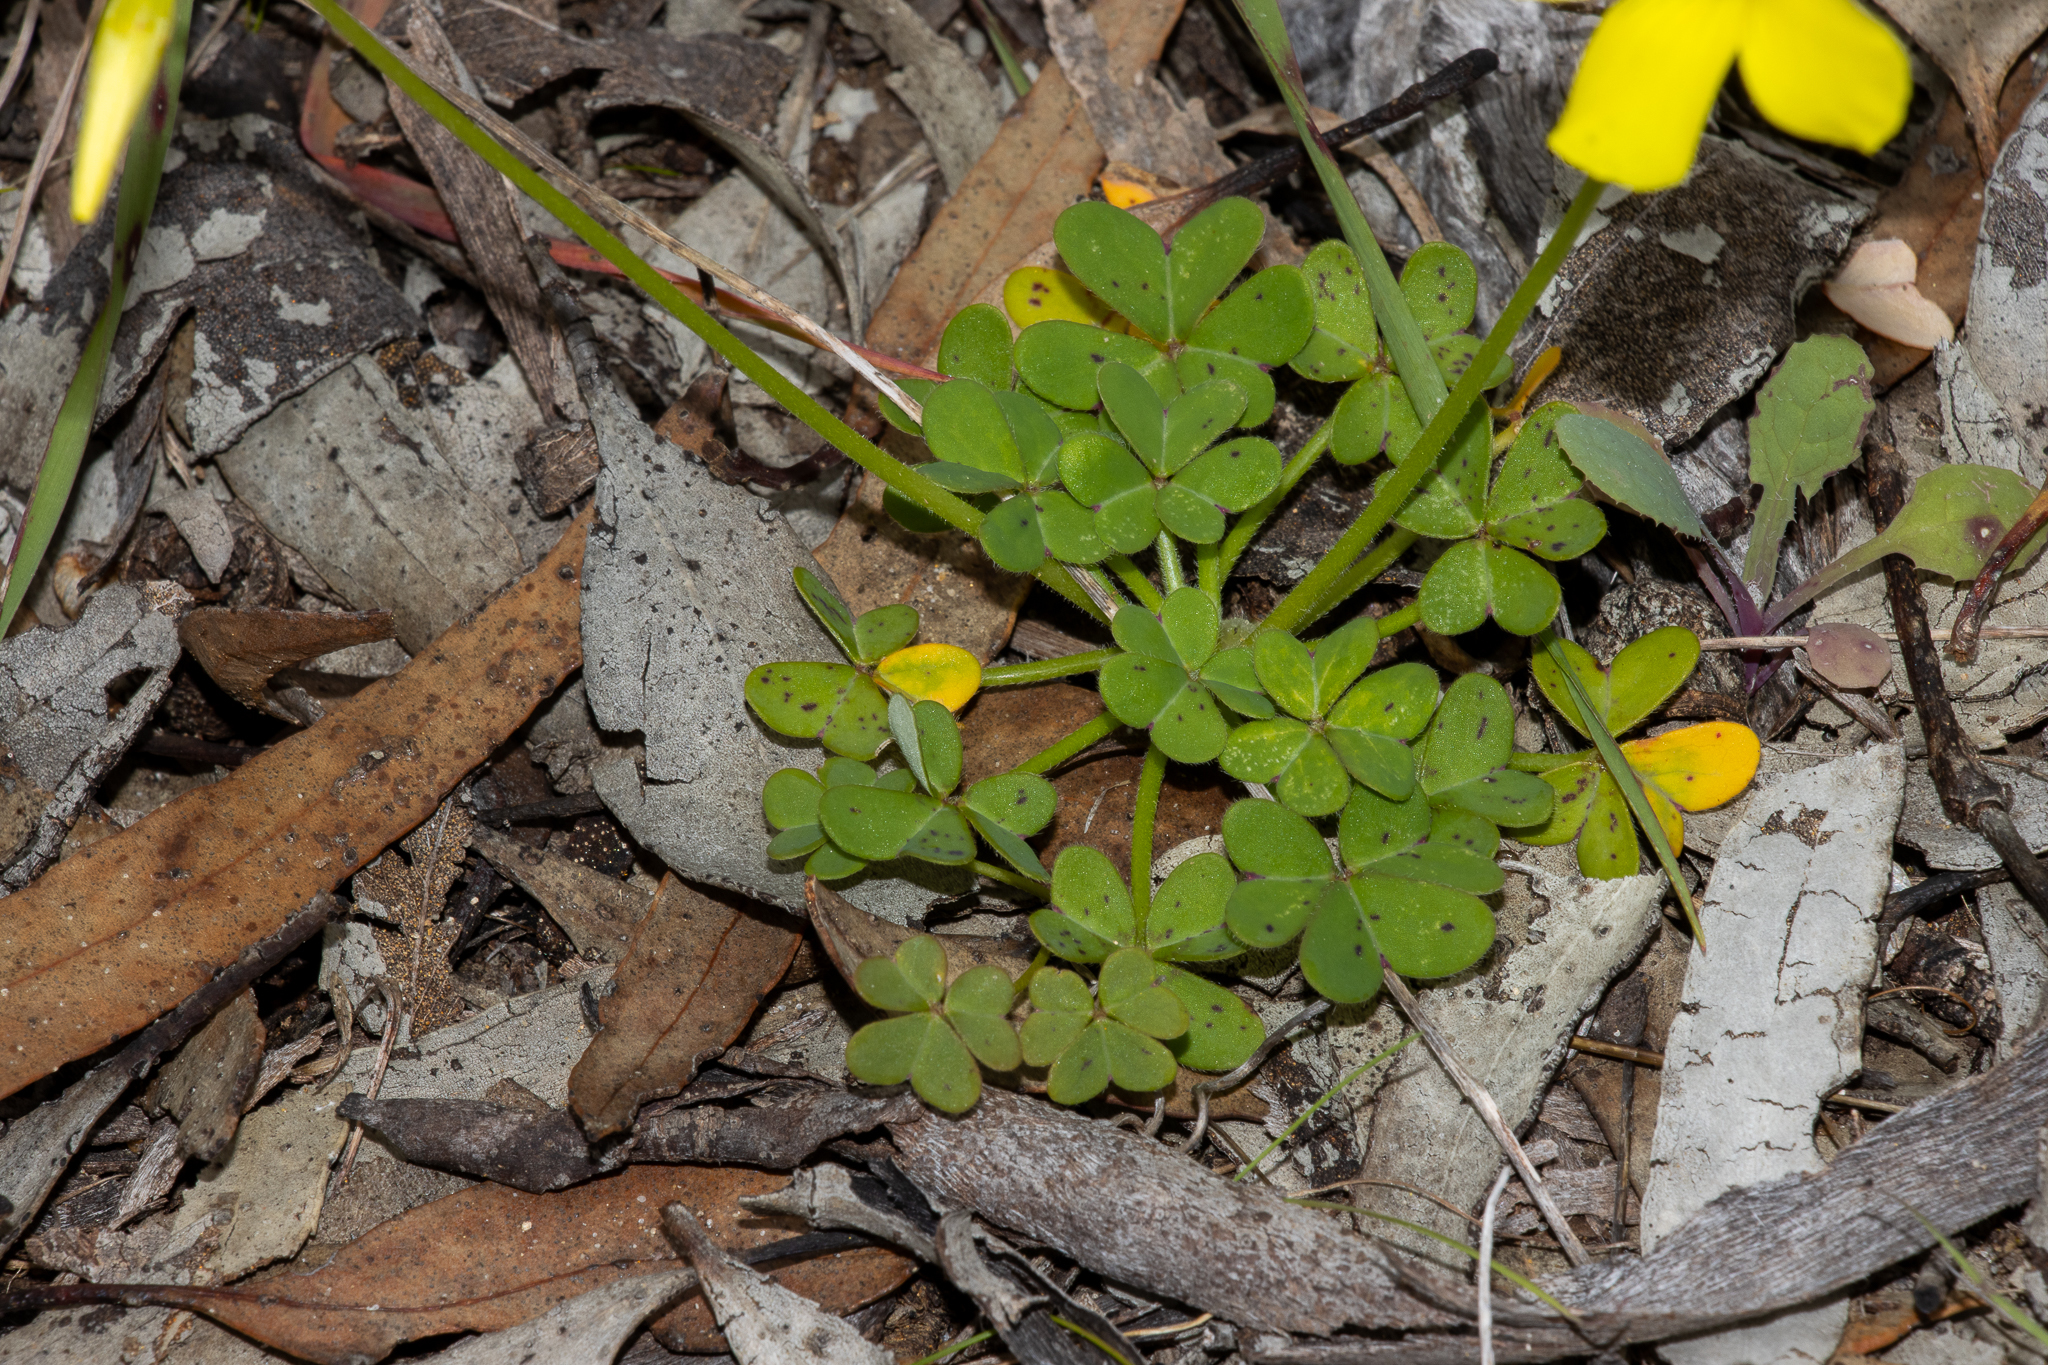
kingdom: Plantae
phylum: Tracheophyta
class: Magnoliopsida
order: Oxalidales
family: Oxalidaceae
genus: Oxalis
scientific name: Oxalis pes-caprae
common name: Bermuda-buttercup
